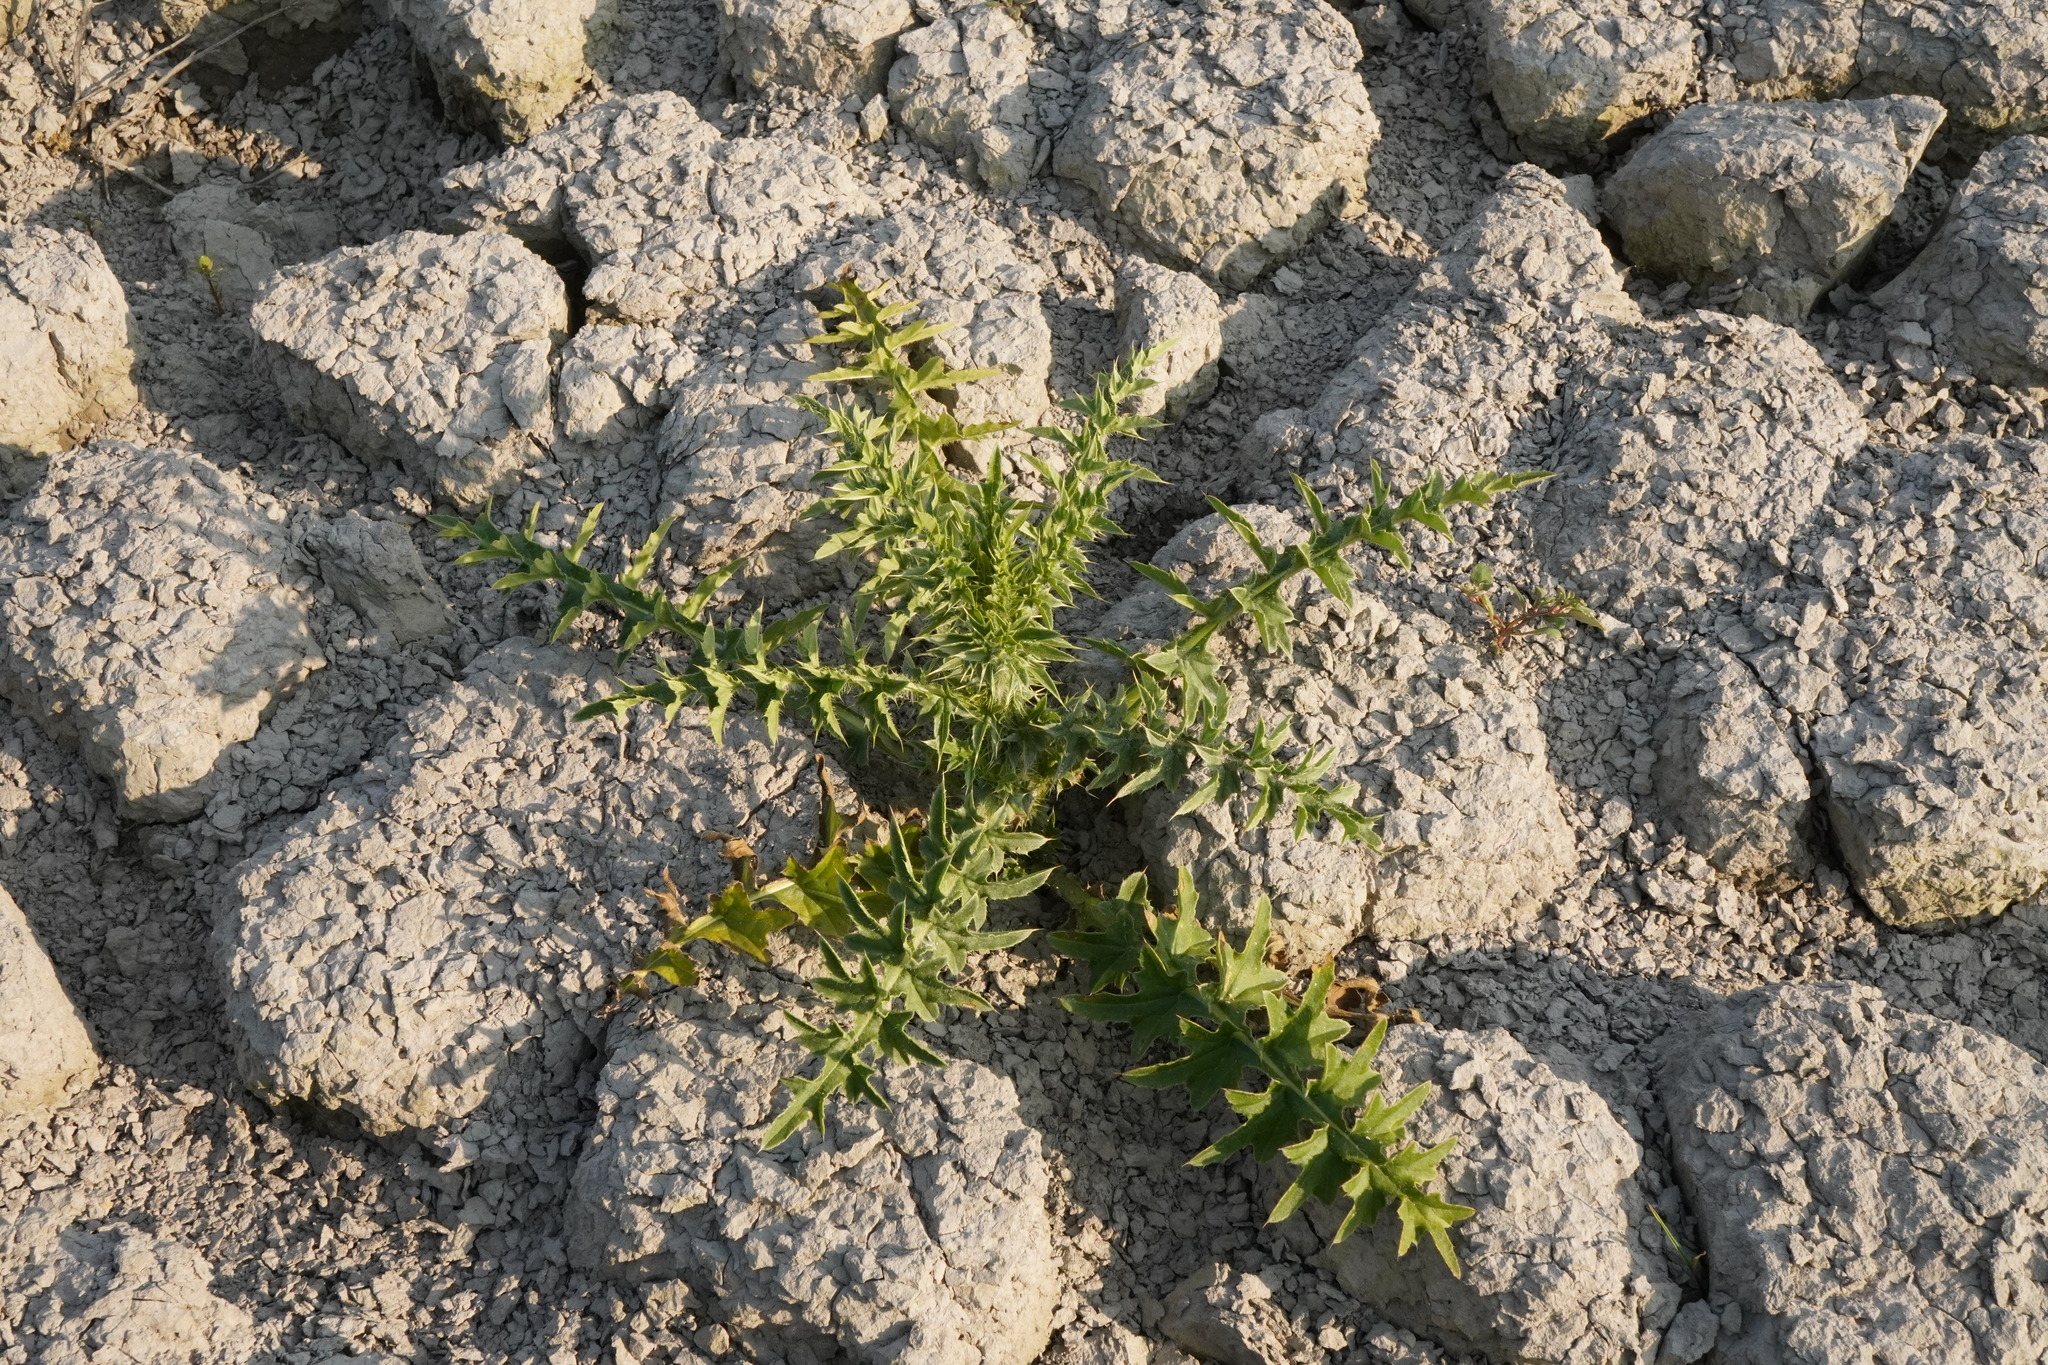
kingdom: Plantae
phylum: Tracheophyta
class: Magnoliopsida
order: Asterales
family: Asteraceae
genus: Carduus
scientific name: Carduus acanthoides
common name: Plumeless thistle
